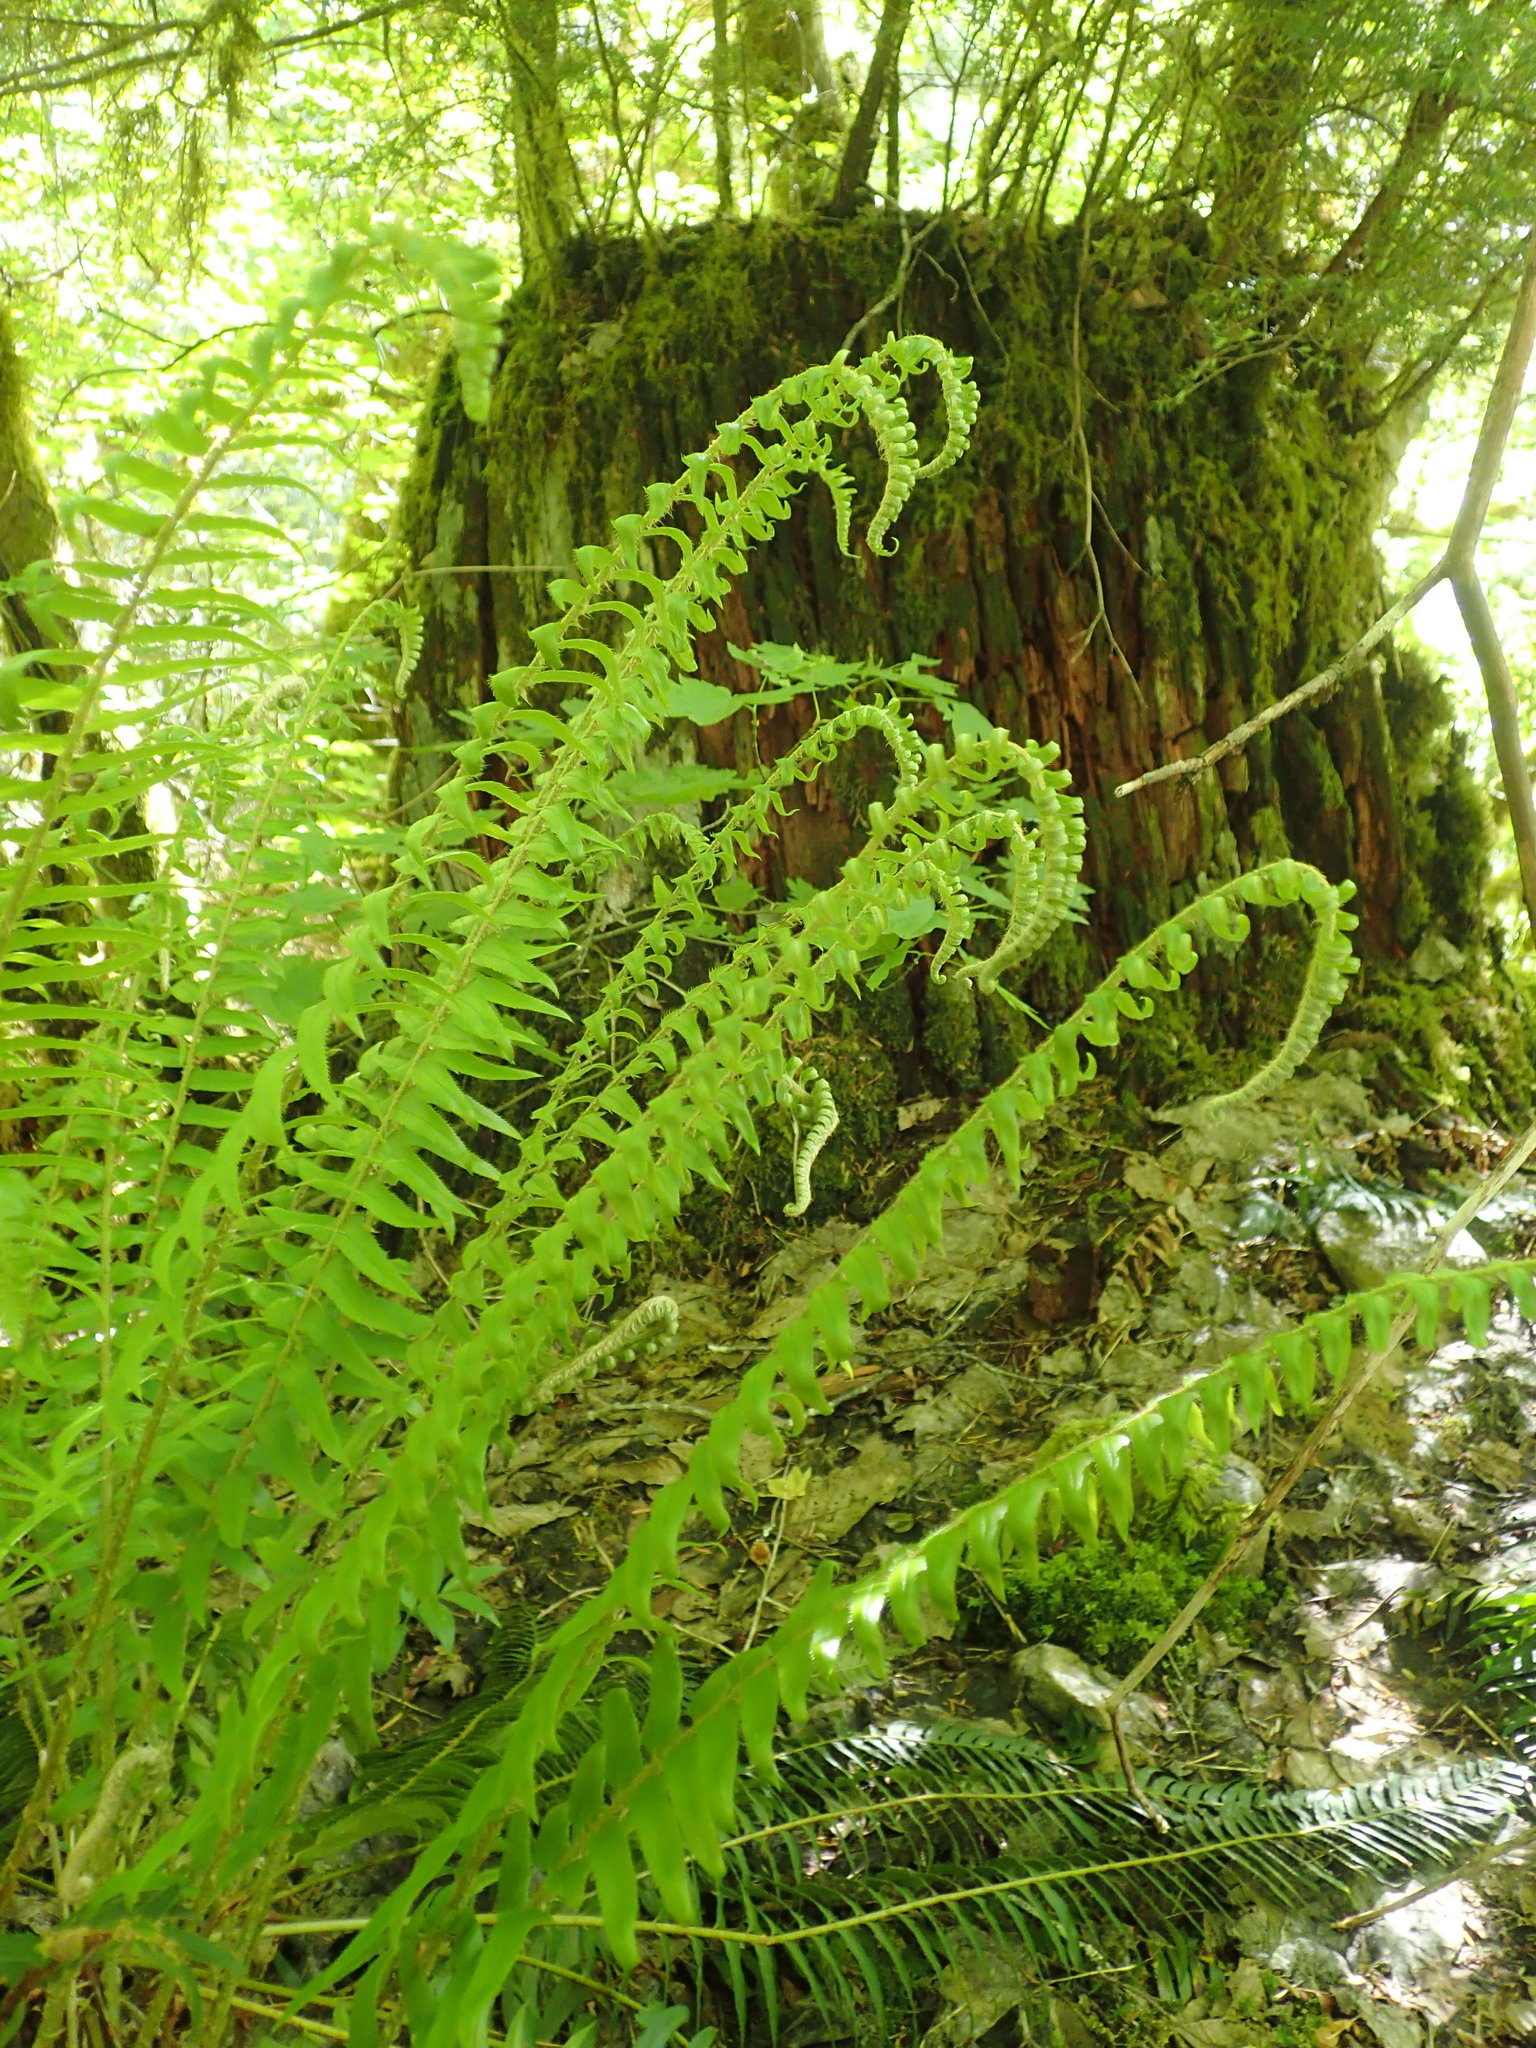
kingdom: Plantae
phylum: Tracheophyta
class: Polypodiopsida
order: Polypodiales
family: Dryopteridaceae
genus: Polystichum
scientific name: Polystichum munitum
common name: Western sword-fern
